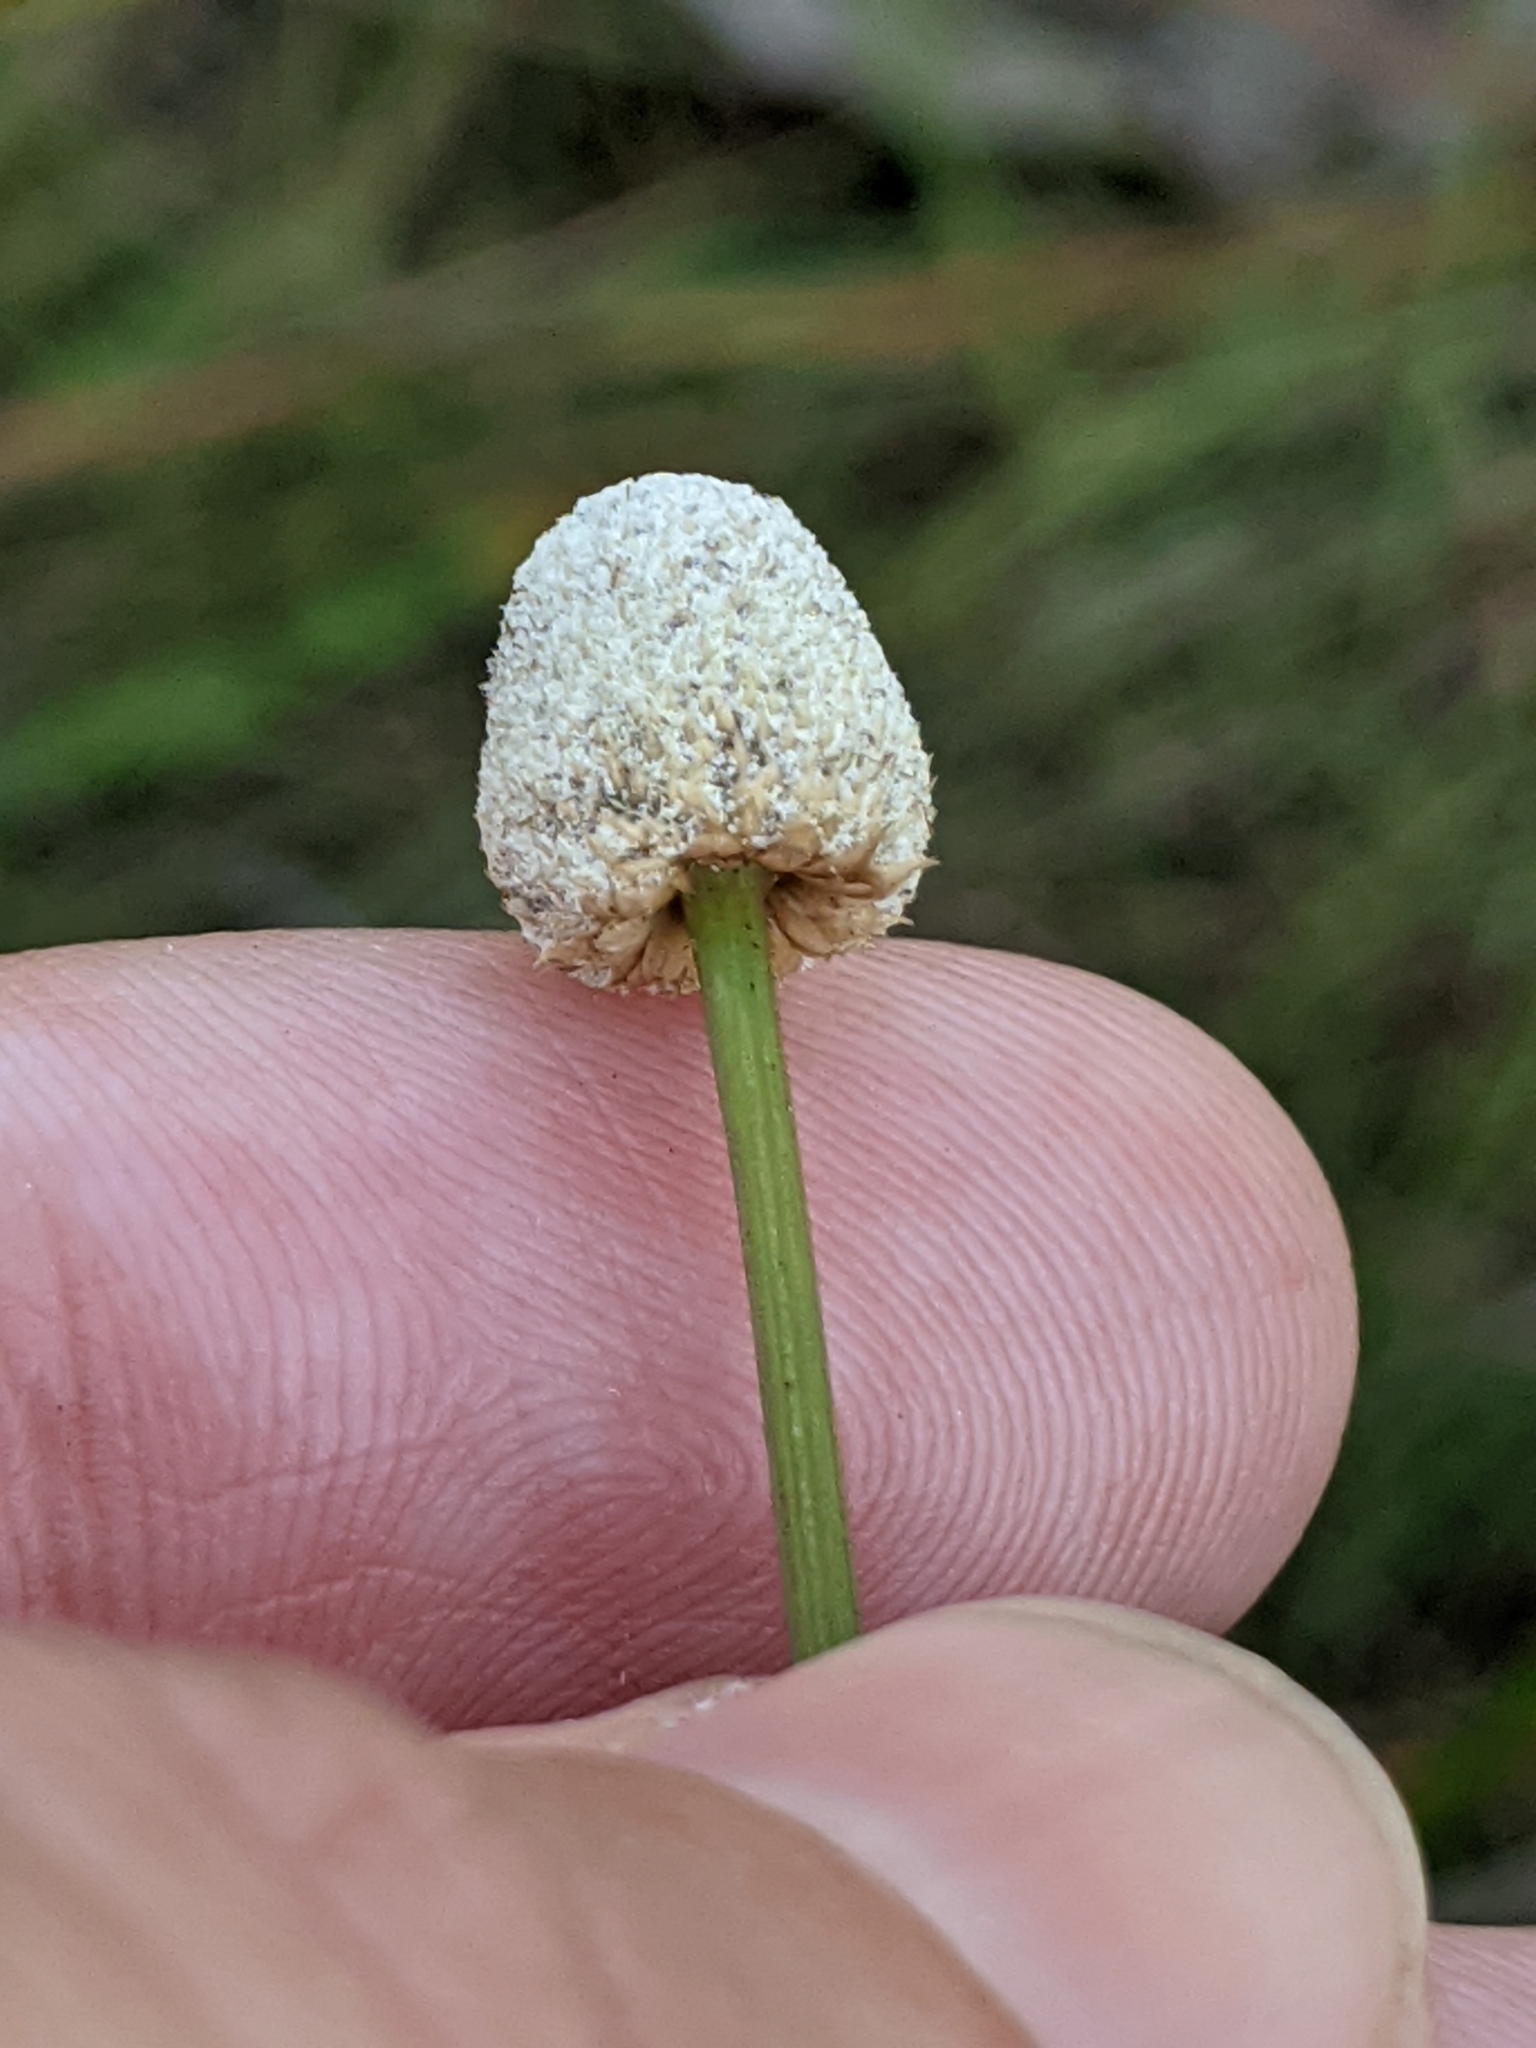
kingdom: Plantae
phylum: Tracheophyta
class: Liliopsida
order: Poales
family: Eriocaulaceae
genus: Eriocaulon
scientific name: Eriocaulon decangulare
